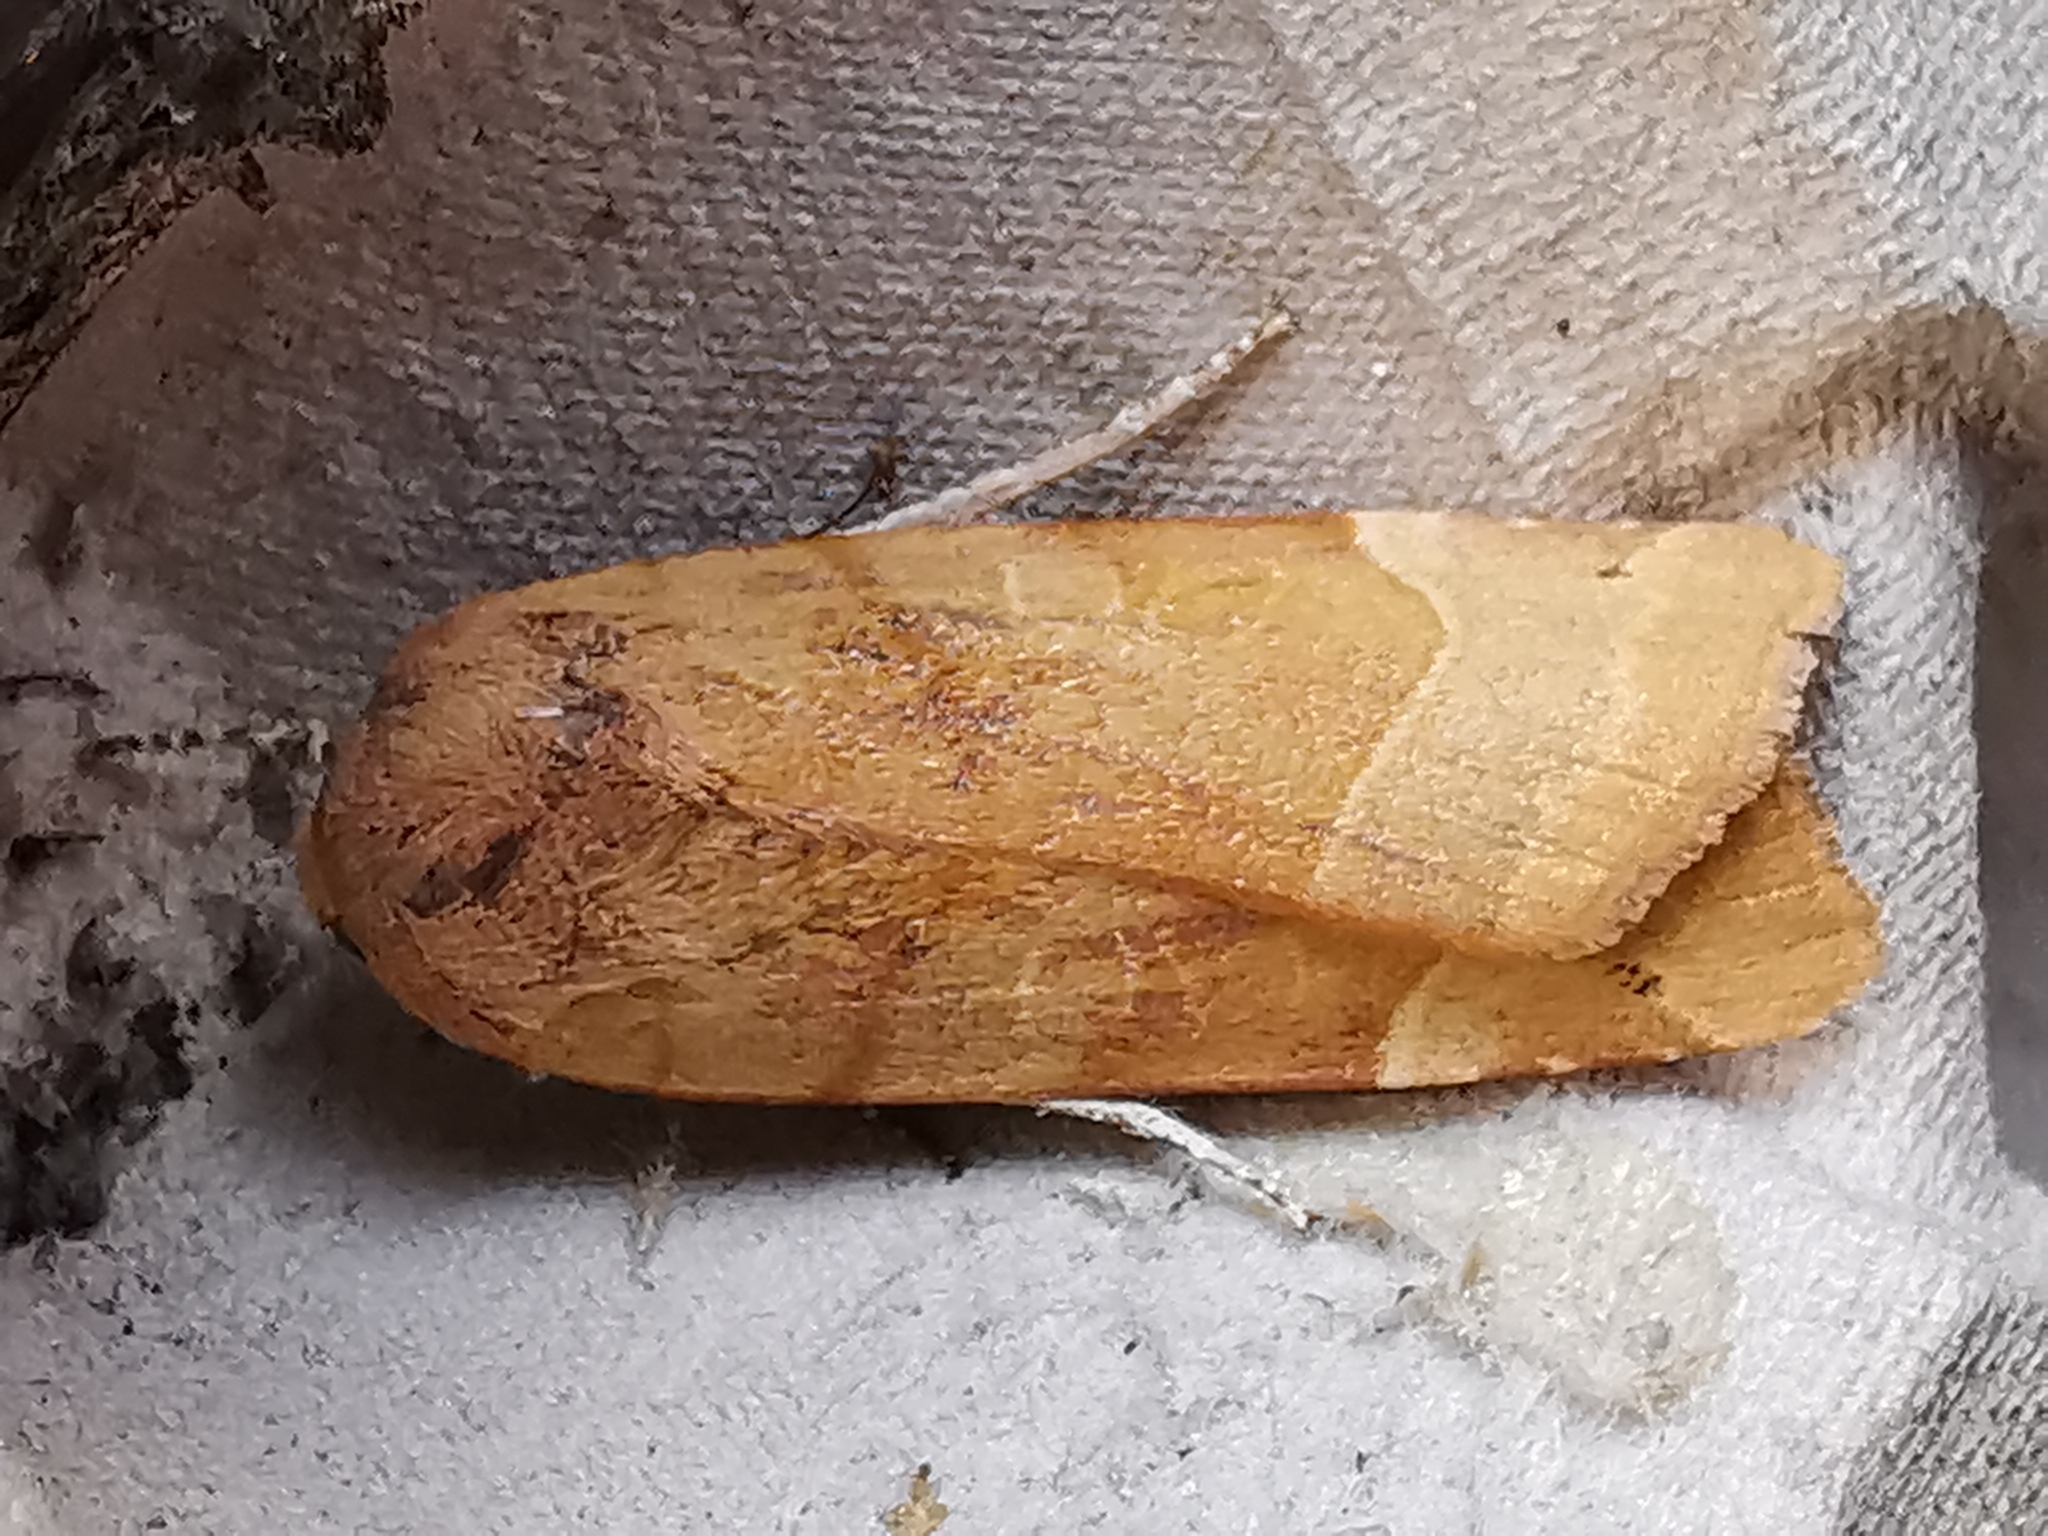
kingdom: Animalia
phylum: Arthropoda
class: Insecta
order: Lepidoptera
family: Noctuidae
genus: Noctua
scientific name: Noctua fimbriata
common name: Broad-bordered yellow underwing
